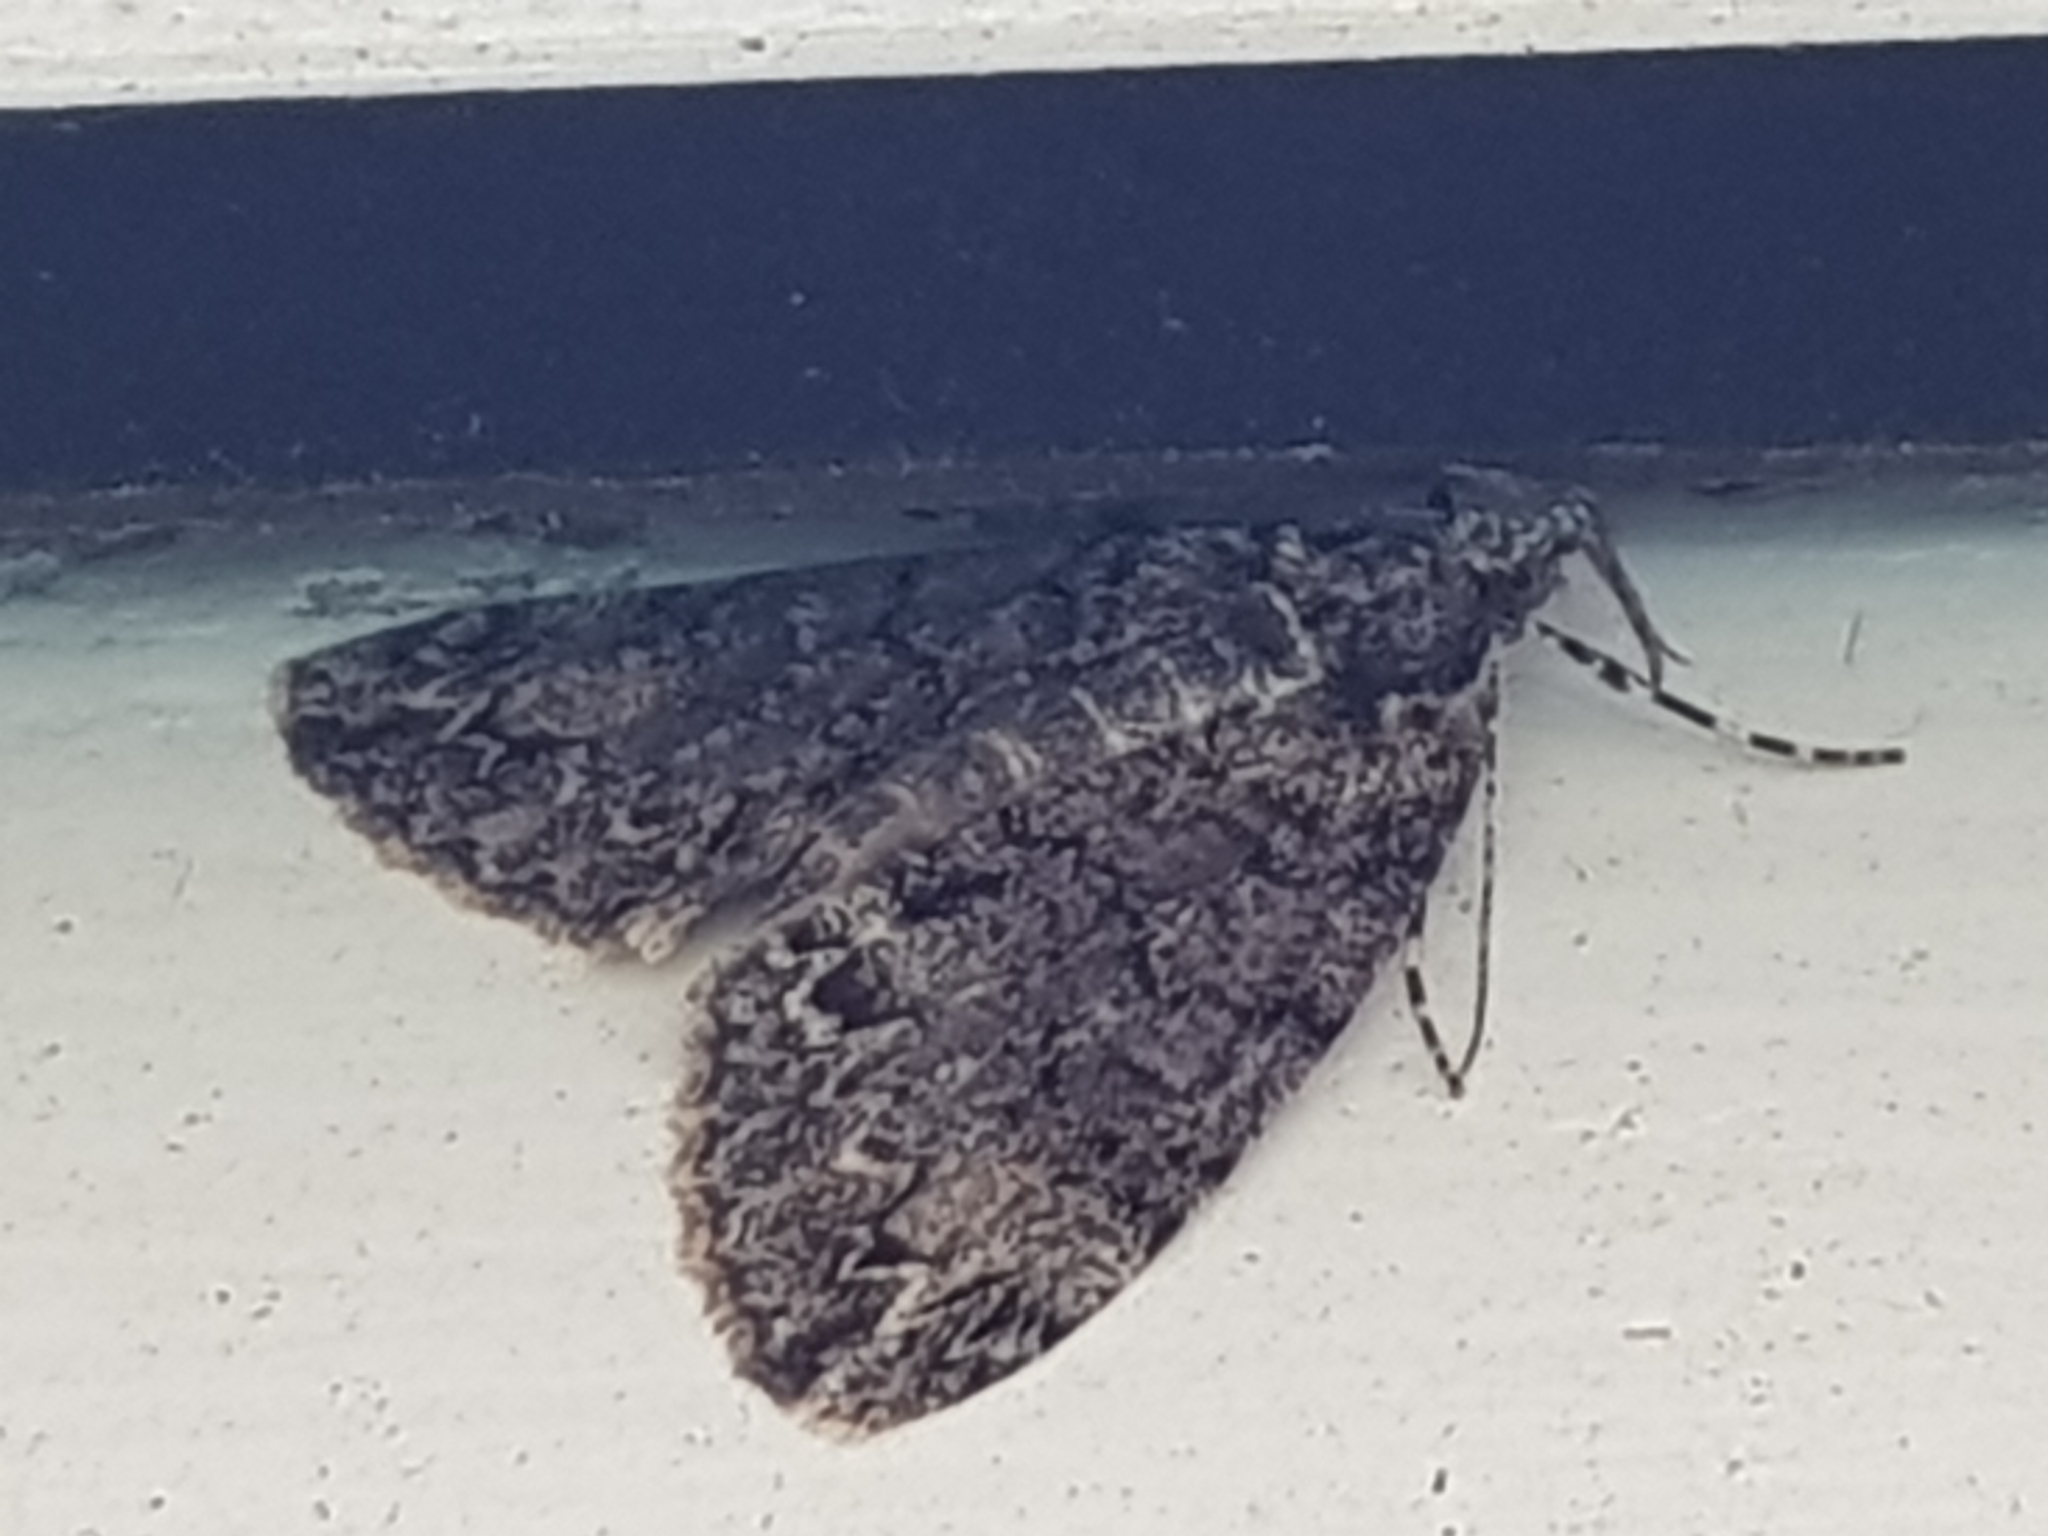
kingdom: Animalia
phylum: Arthropoda
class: Insecta
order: Lepidoptera
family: Geometridae
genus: Pseudocoremia
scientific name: Pseudocoremia suavis
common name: Common forest looper
